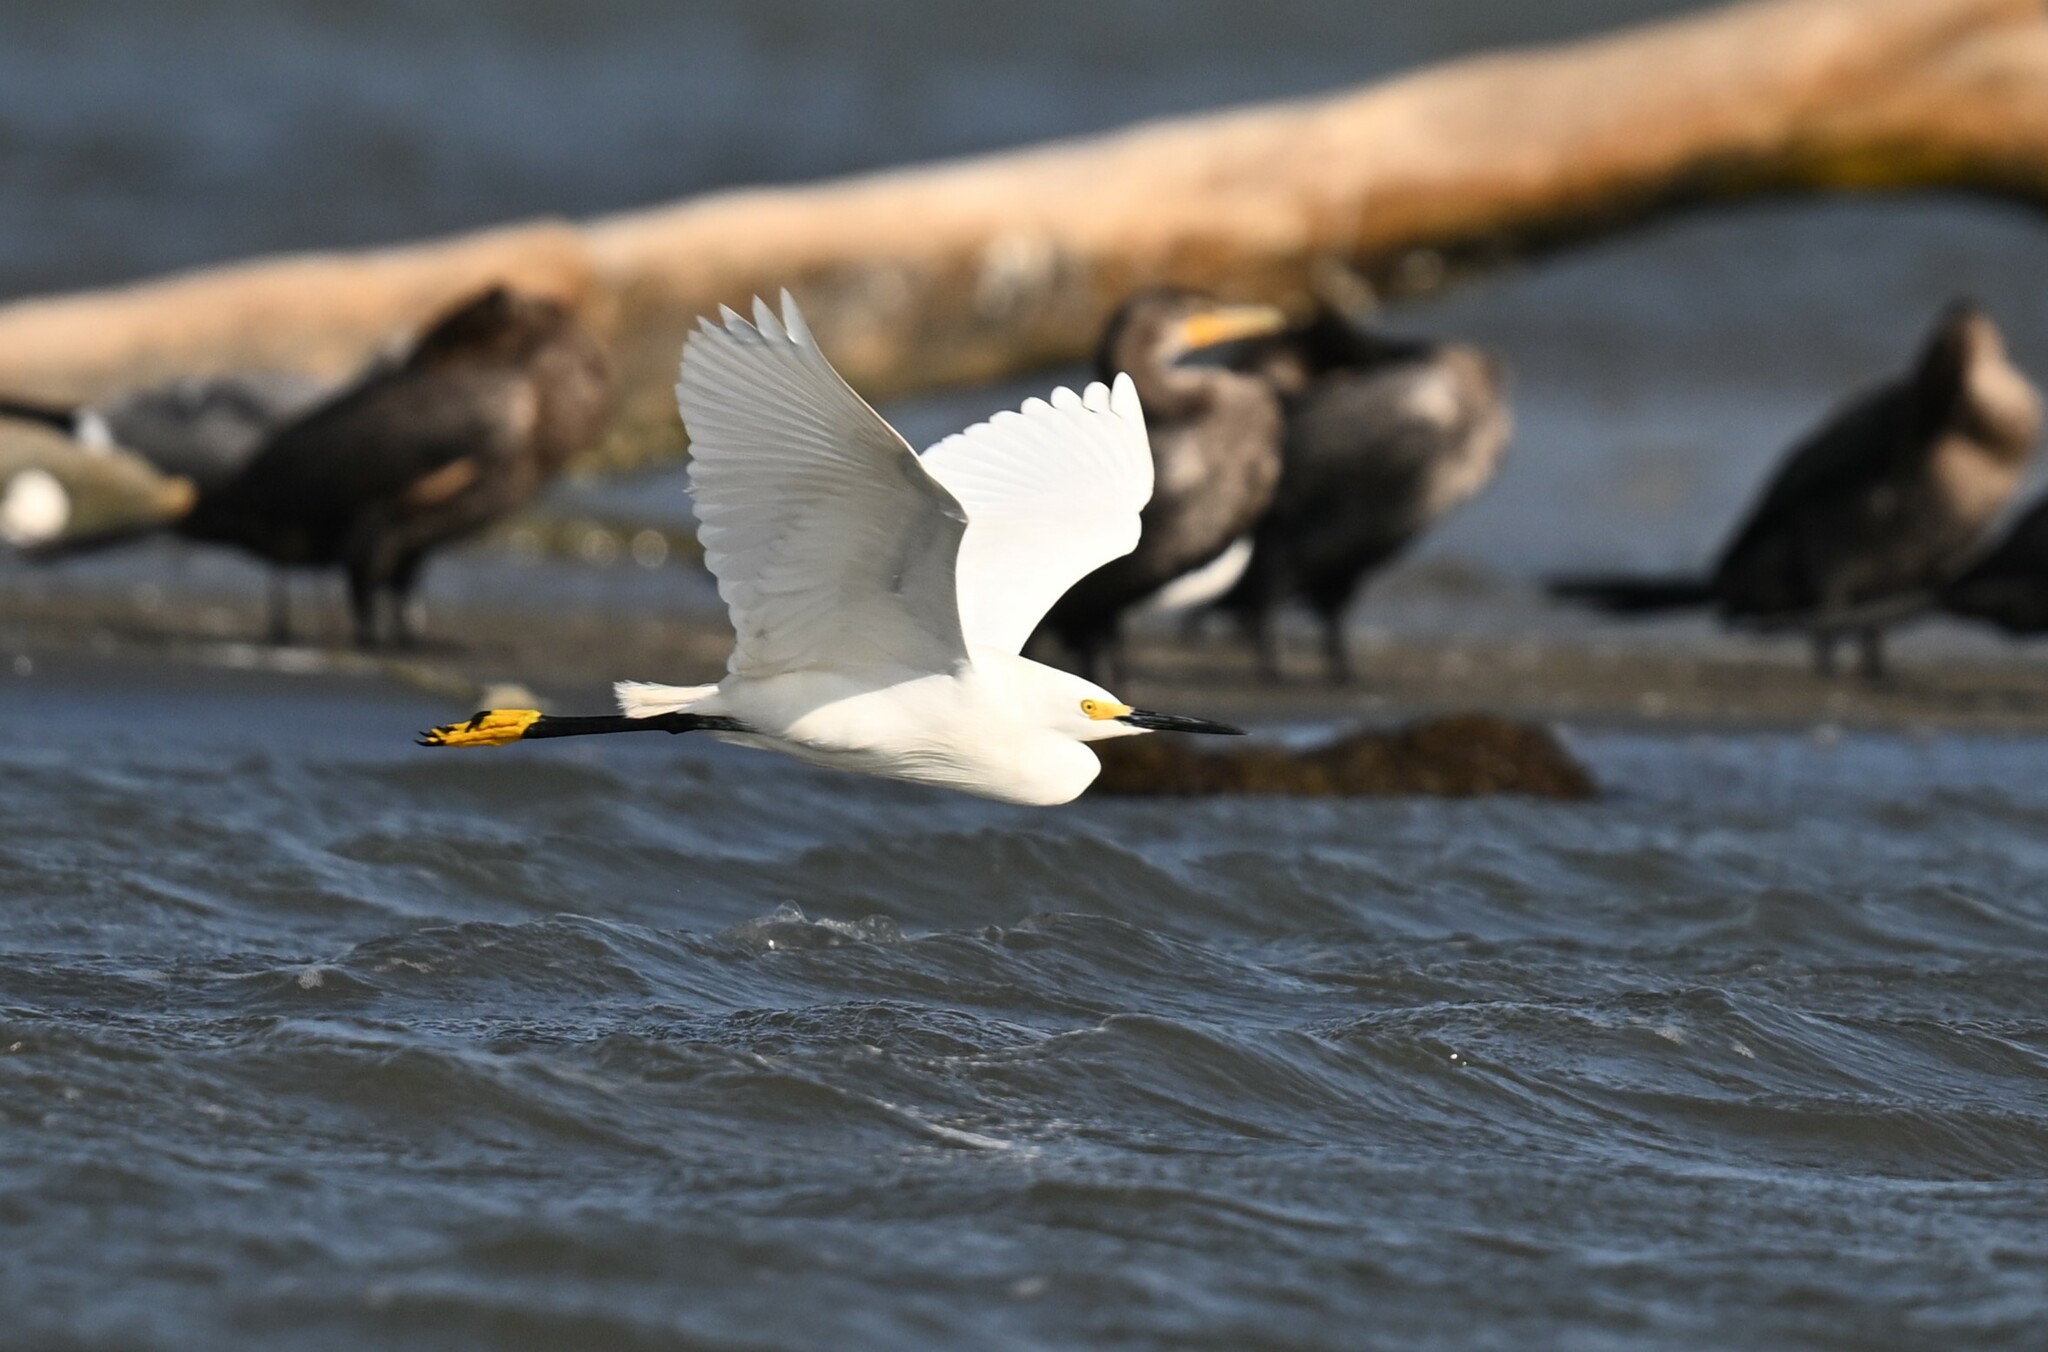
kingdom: Animalia
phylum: Chordata
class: Aves
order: Pelecaniformes
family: Ardeidae
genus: Egretta
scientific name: Egretta thula
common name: Snowy egret
